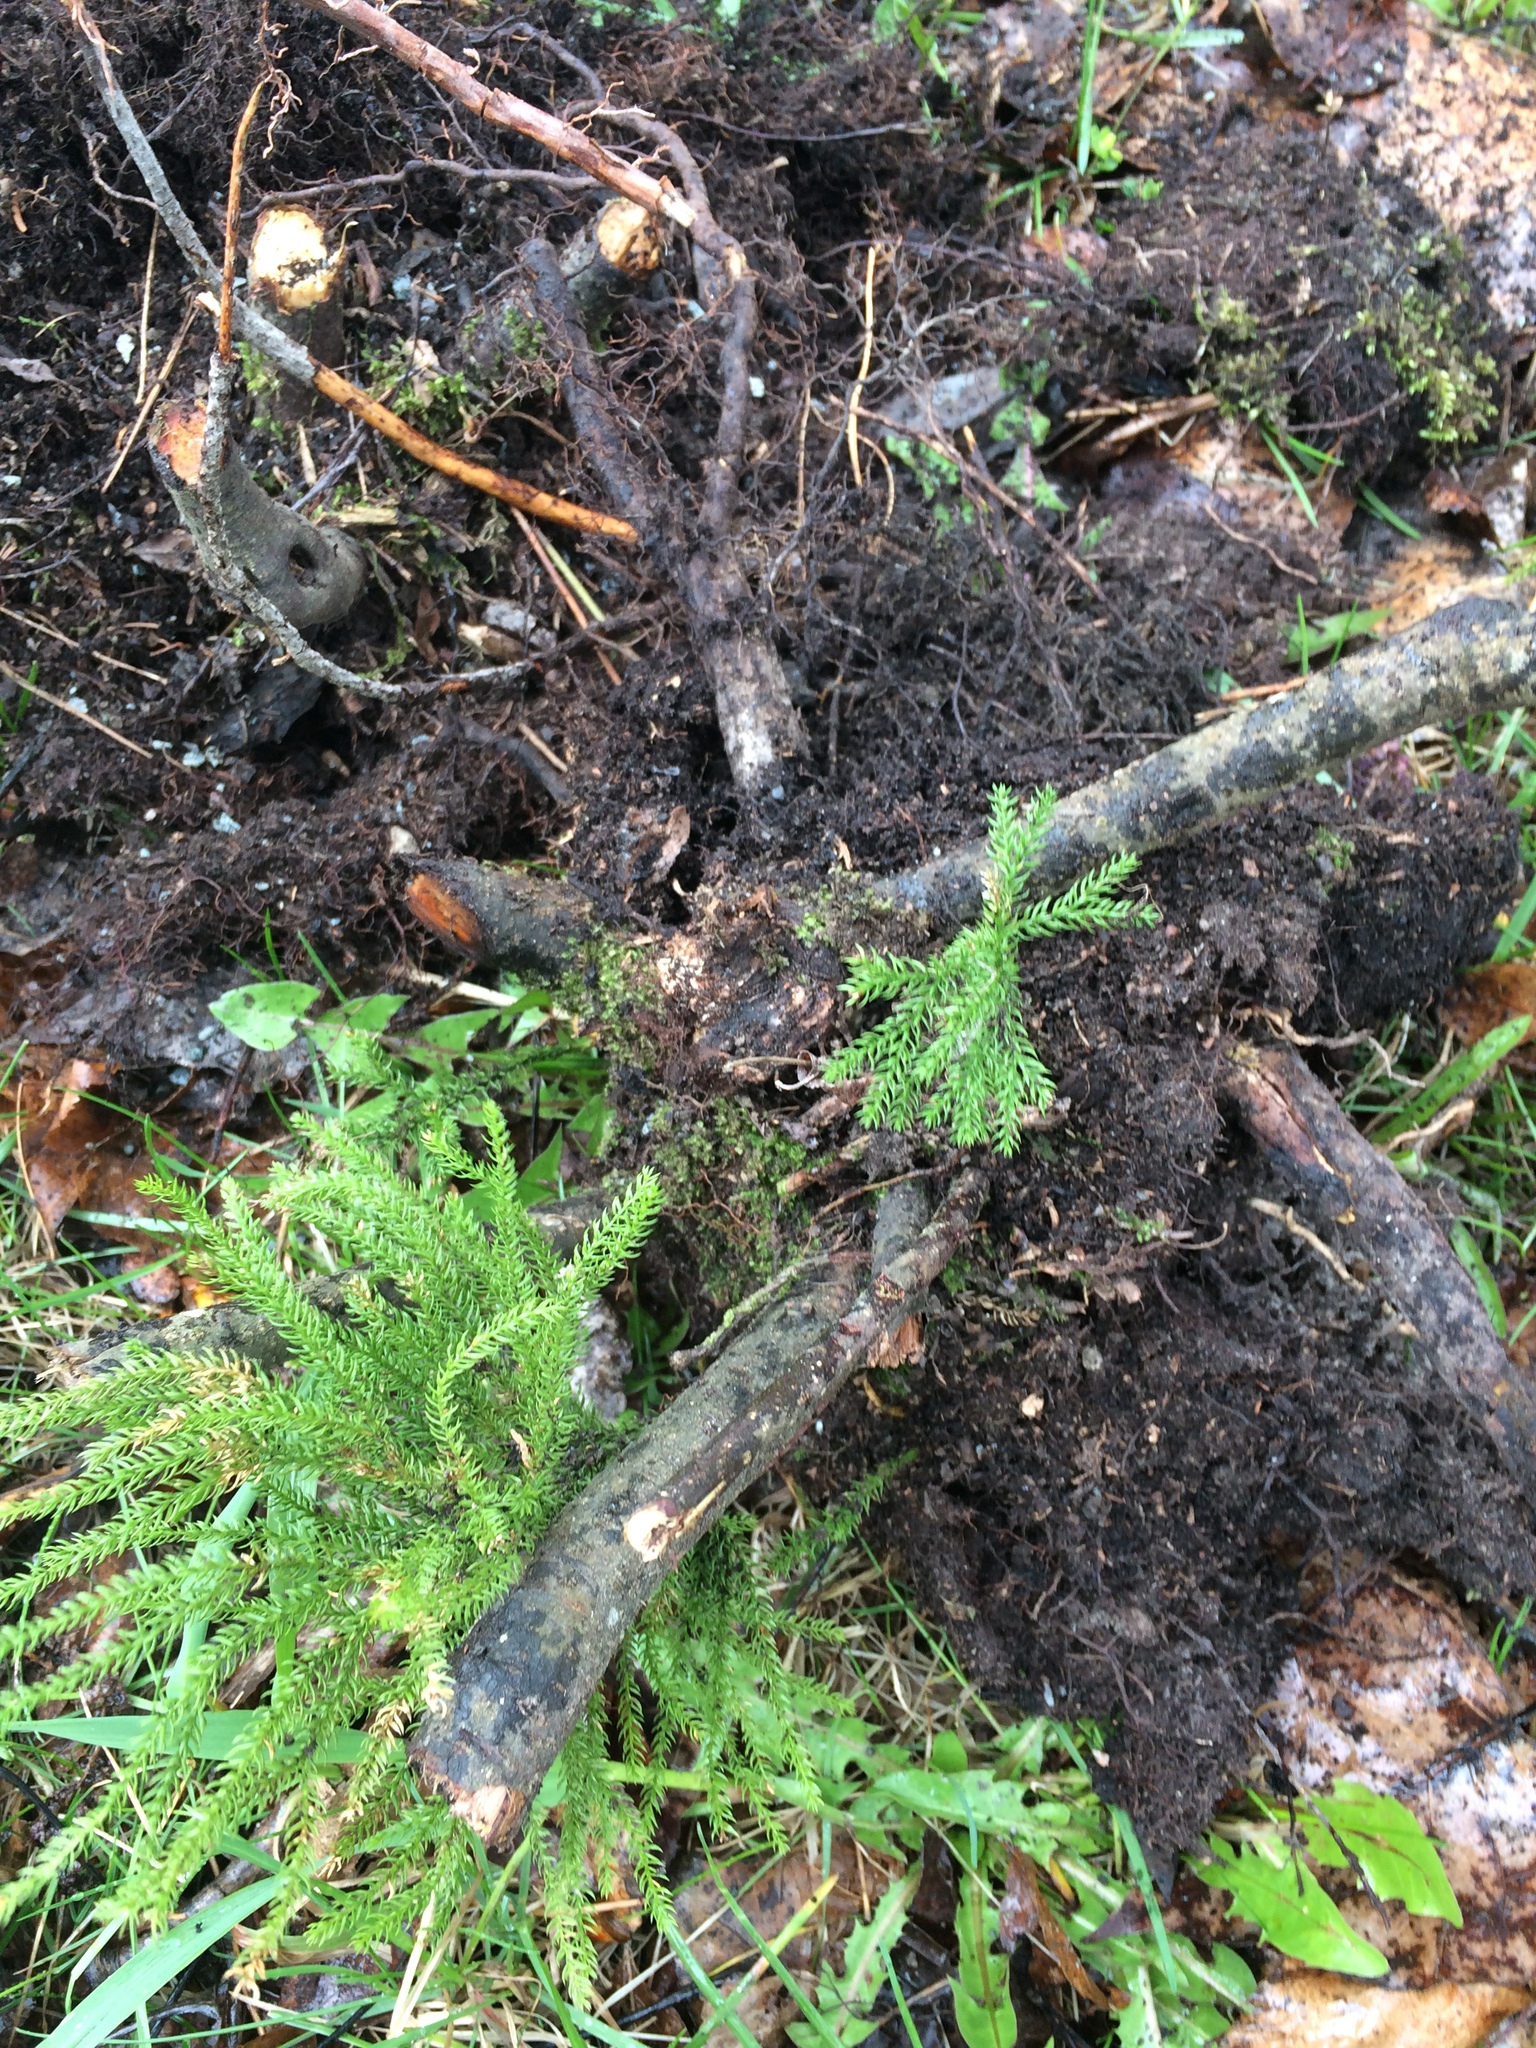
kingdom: Plantae
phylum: Tracheophyta
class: Lycopodiopsida
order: Lycopodiales
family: Lycopodiaceae
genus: Dendrolycopodium
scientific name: Dendrolycopodium dendroideum
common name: Northern tree-clubmoss
